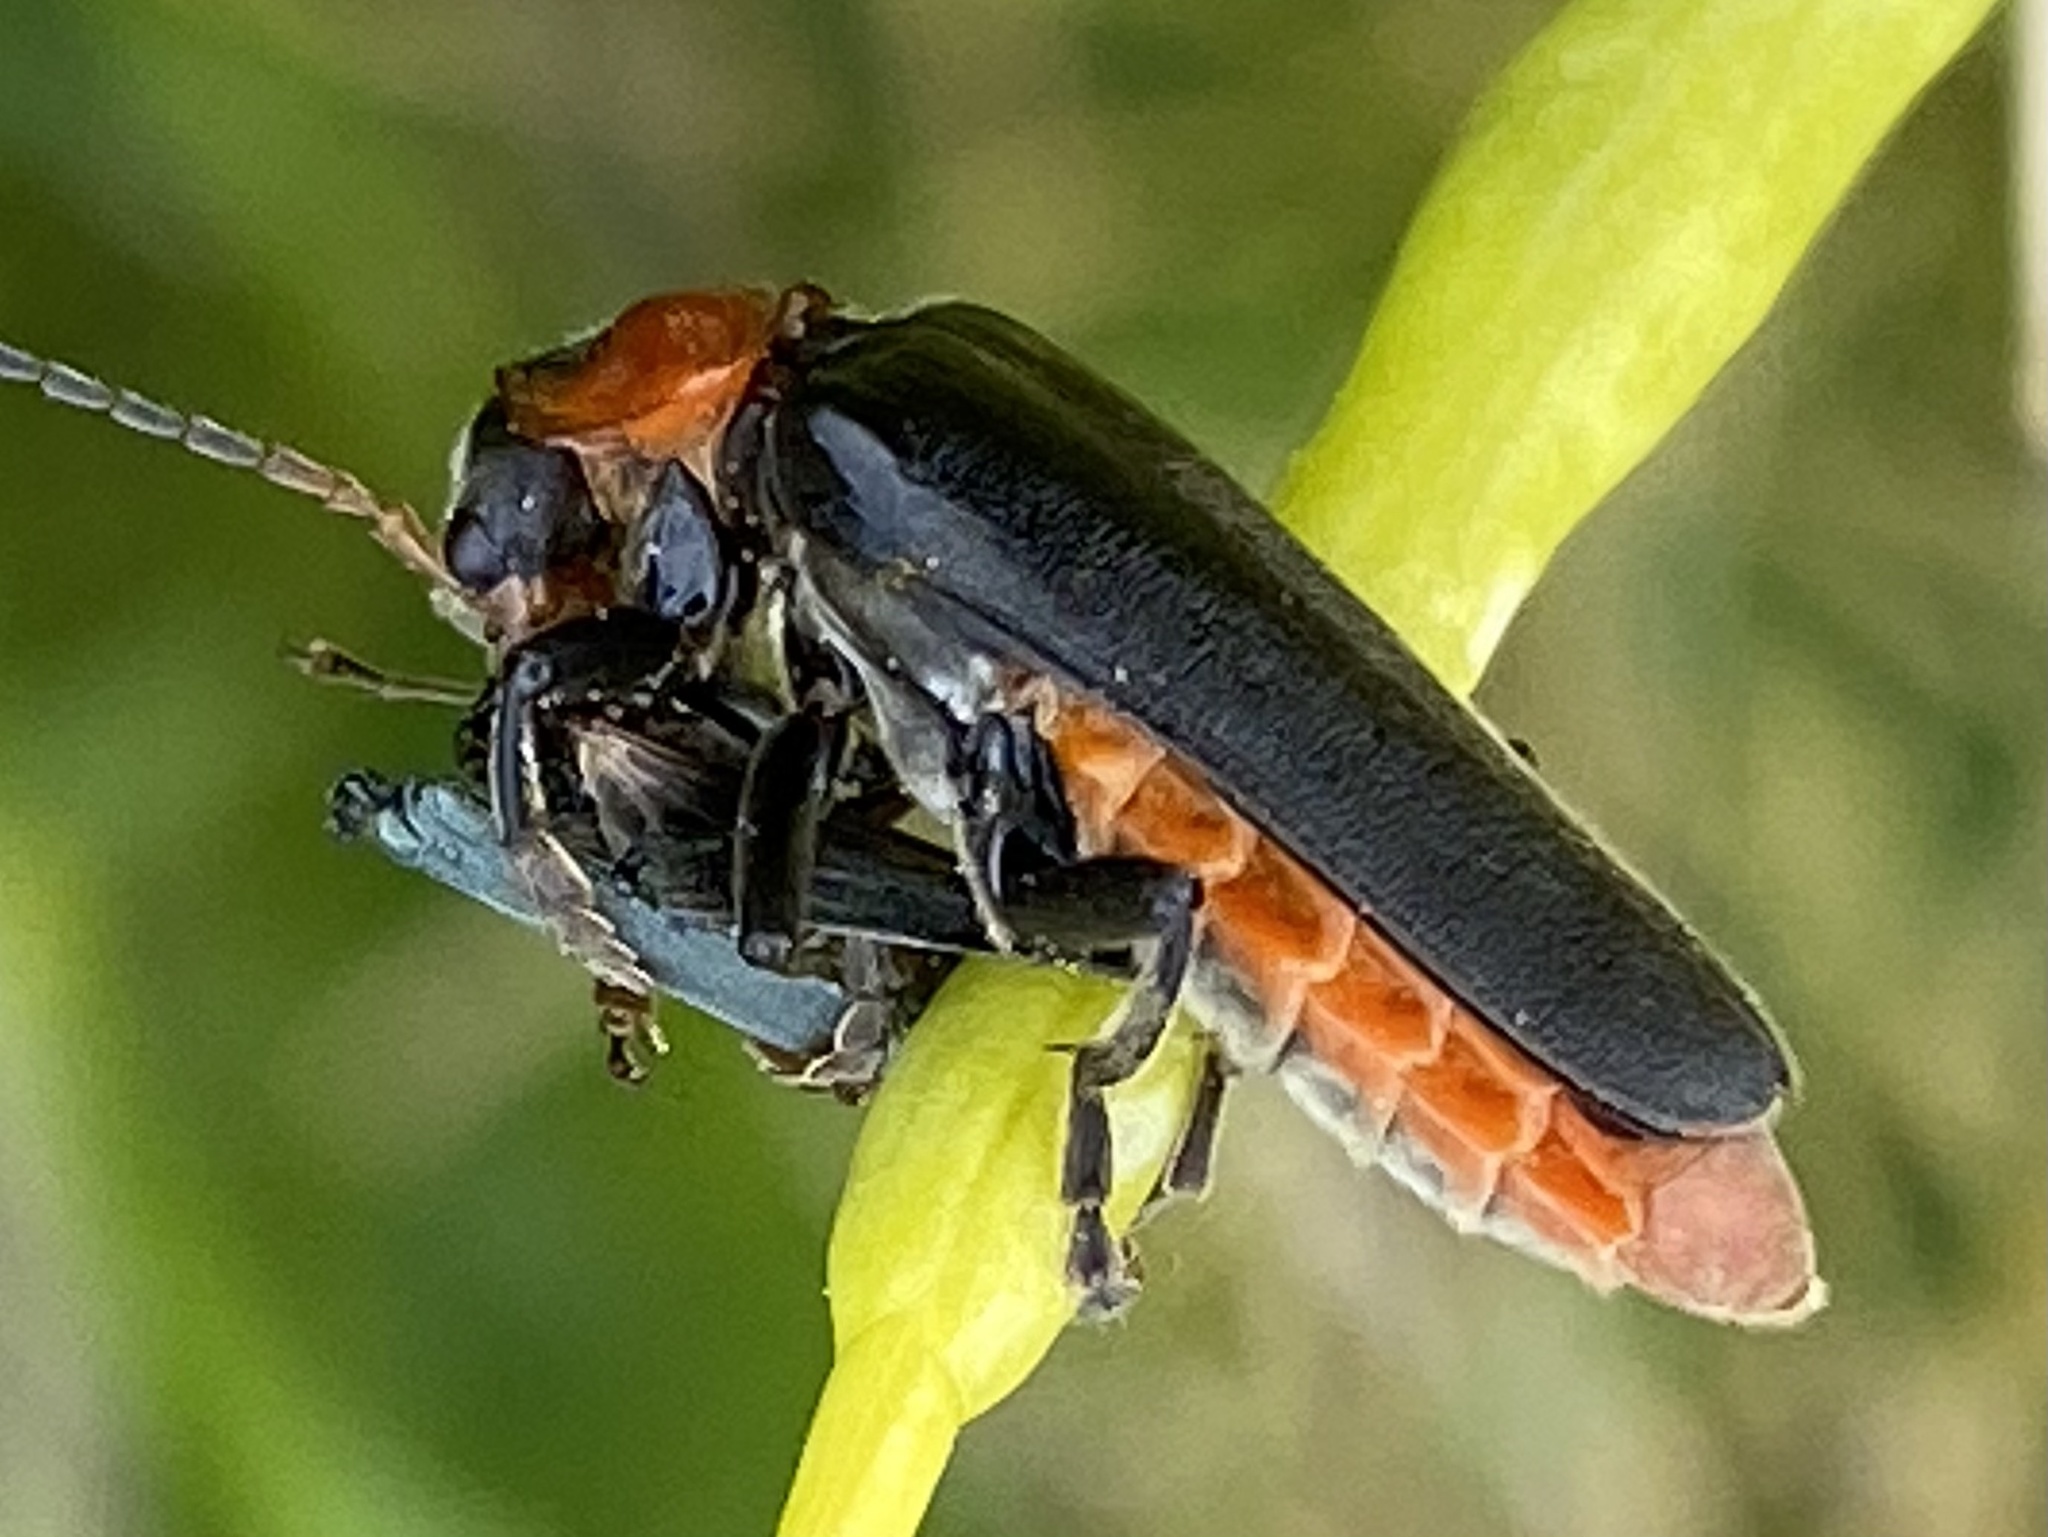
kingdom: Animalia
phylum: Arthropoda
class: Insecta
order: Coleoptera
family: Cantharidae
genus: Cantharis
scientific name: Cantharis fusca
